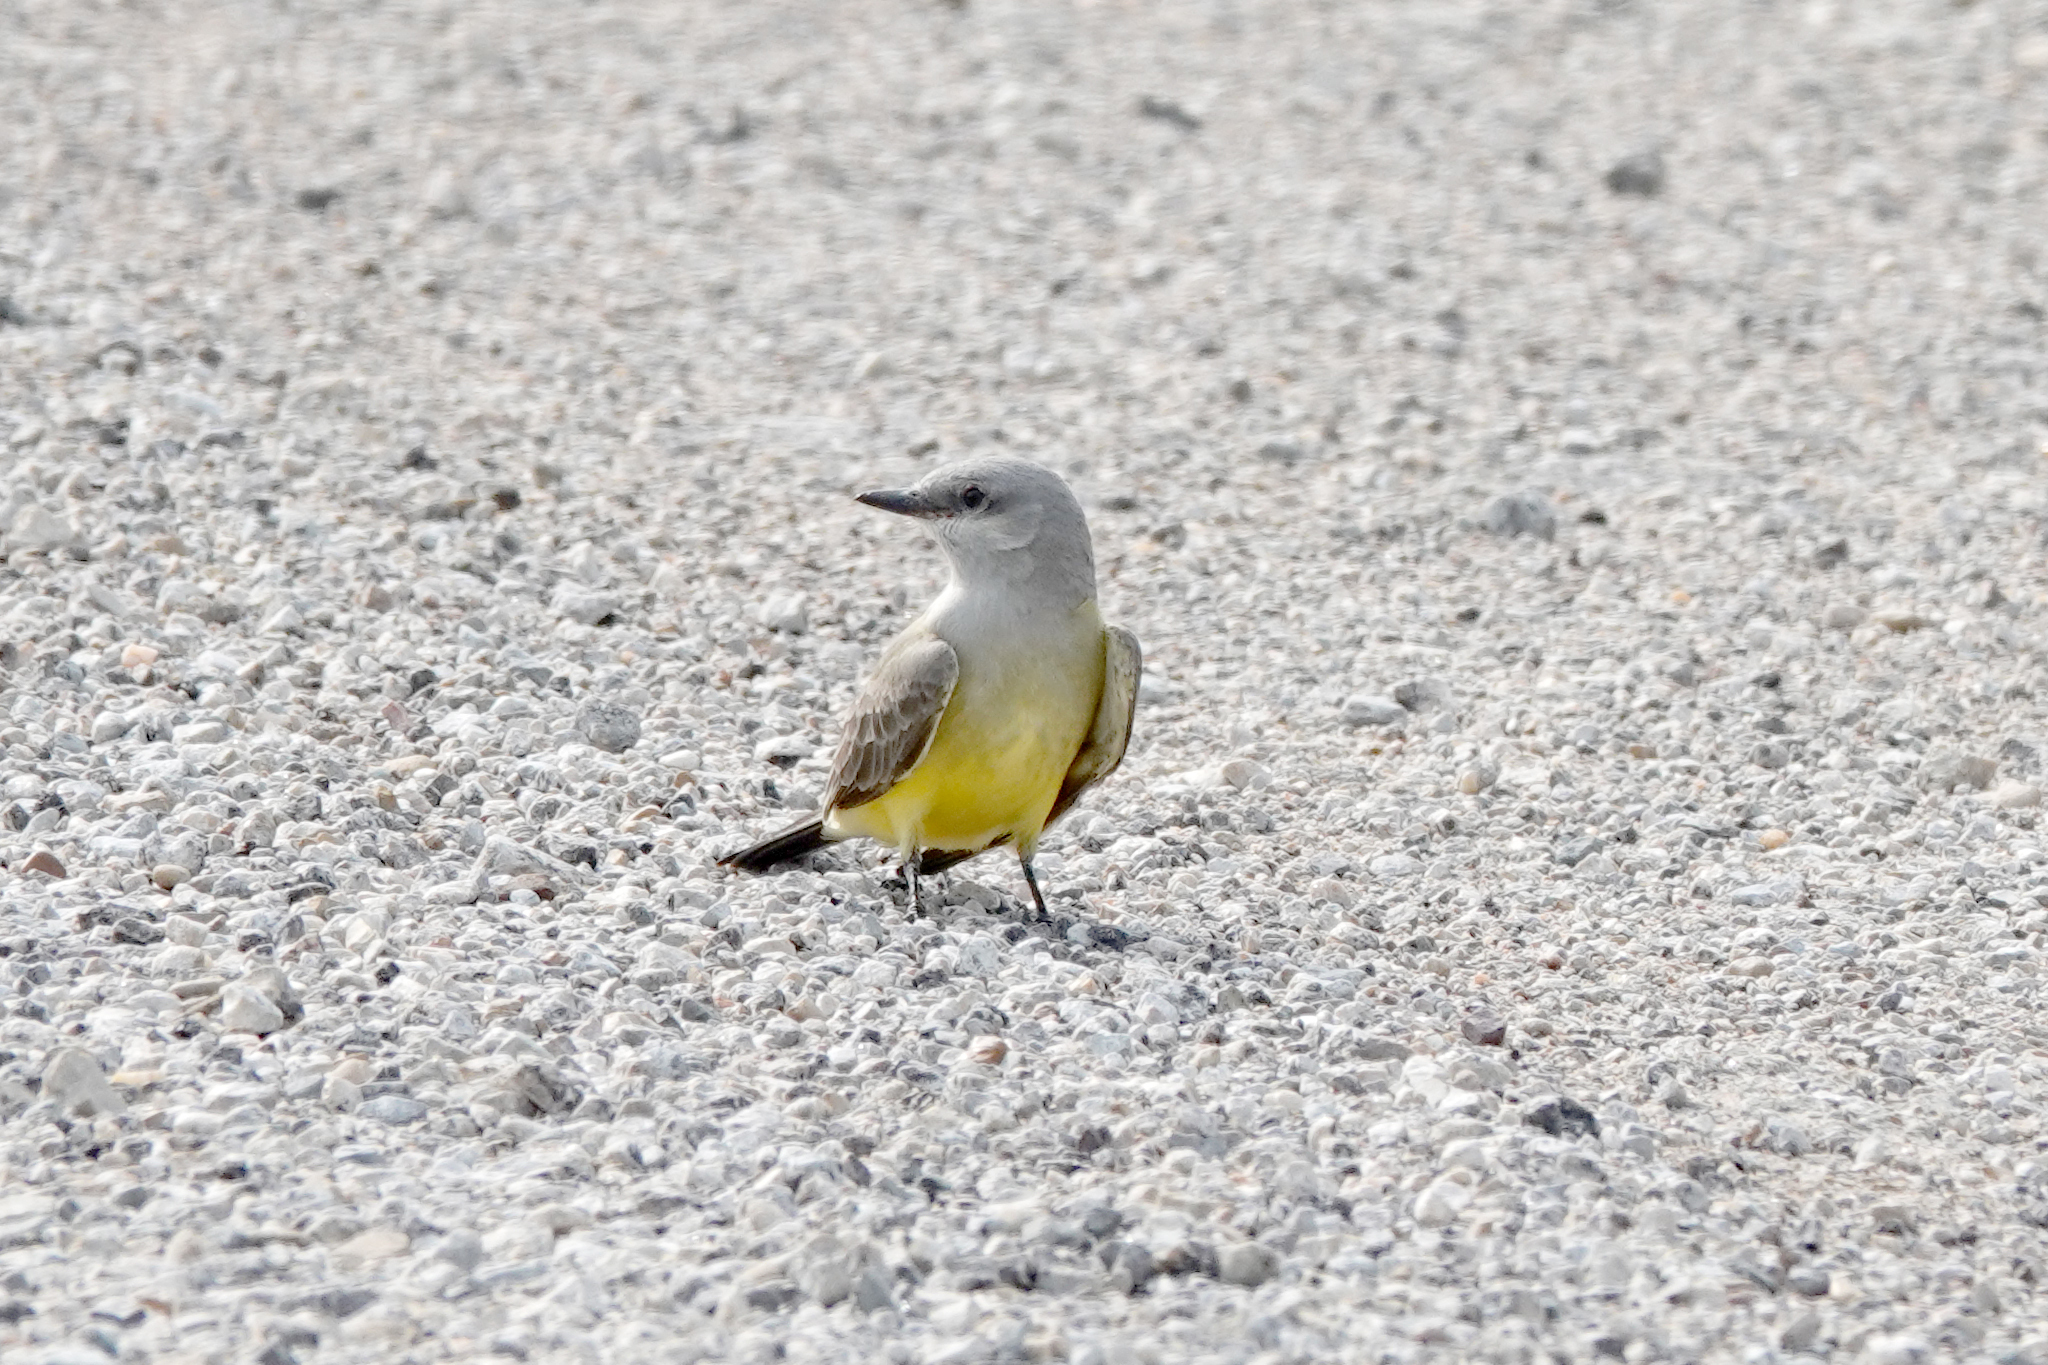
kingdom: Animalia
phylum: Chordata
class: Aves
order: Passeriformes
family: Tyrannidae
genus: Tyrannus
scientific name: Tyrannus verticalis
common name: Western kingbird
